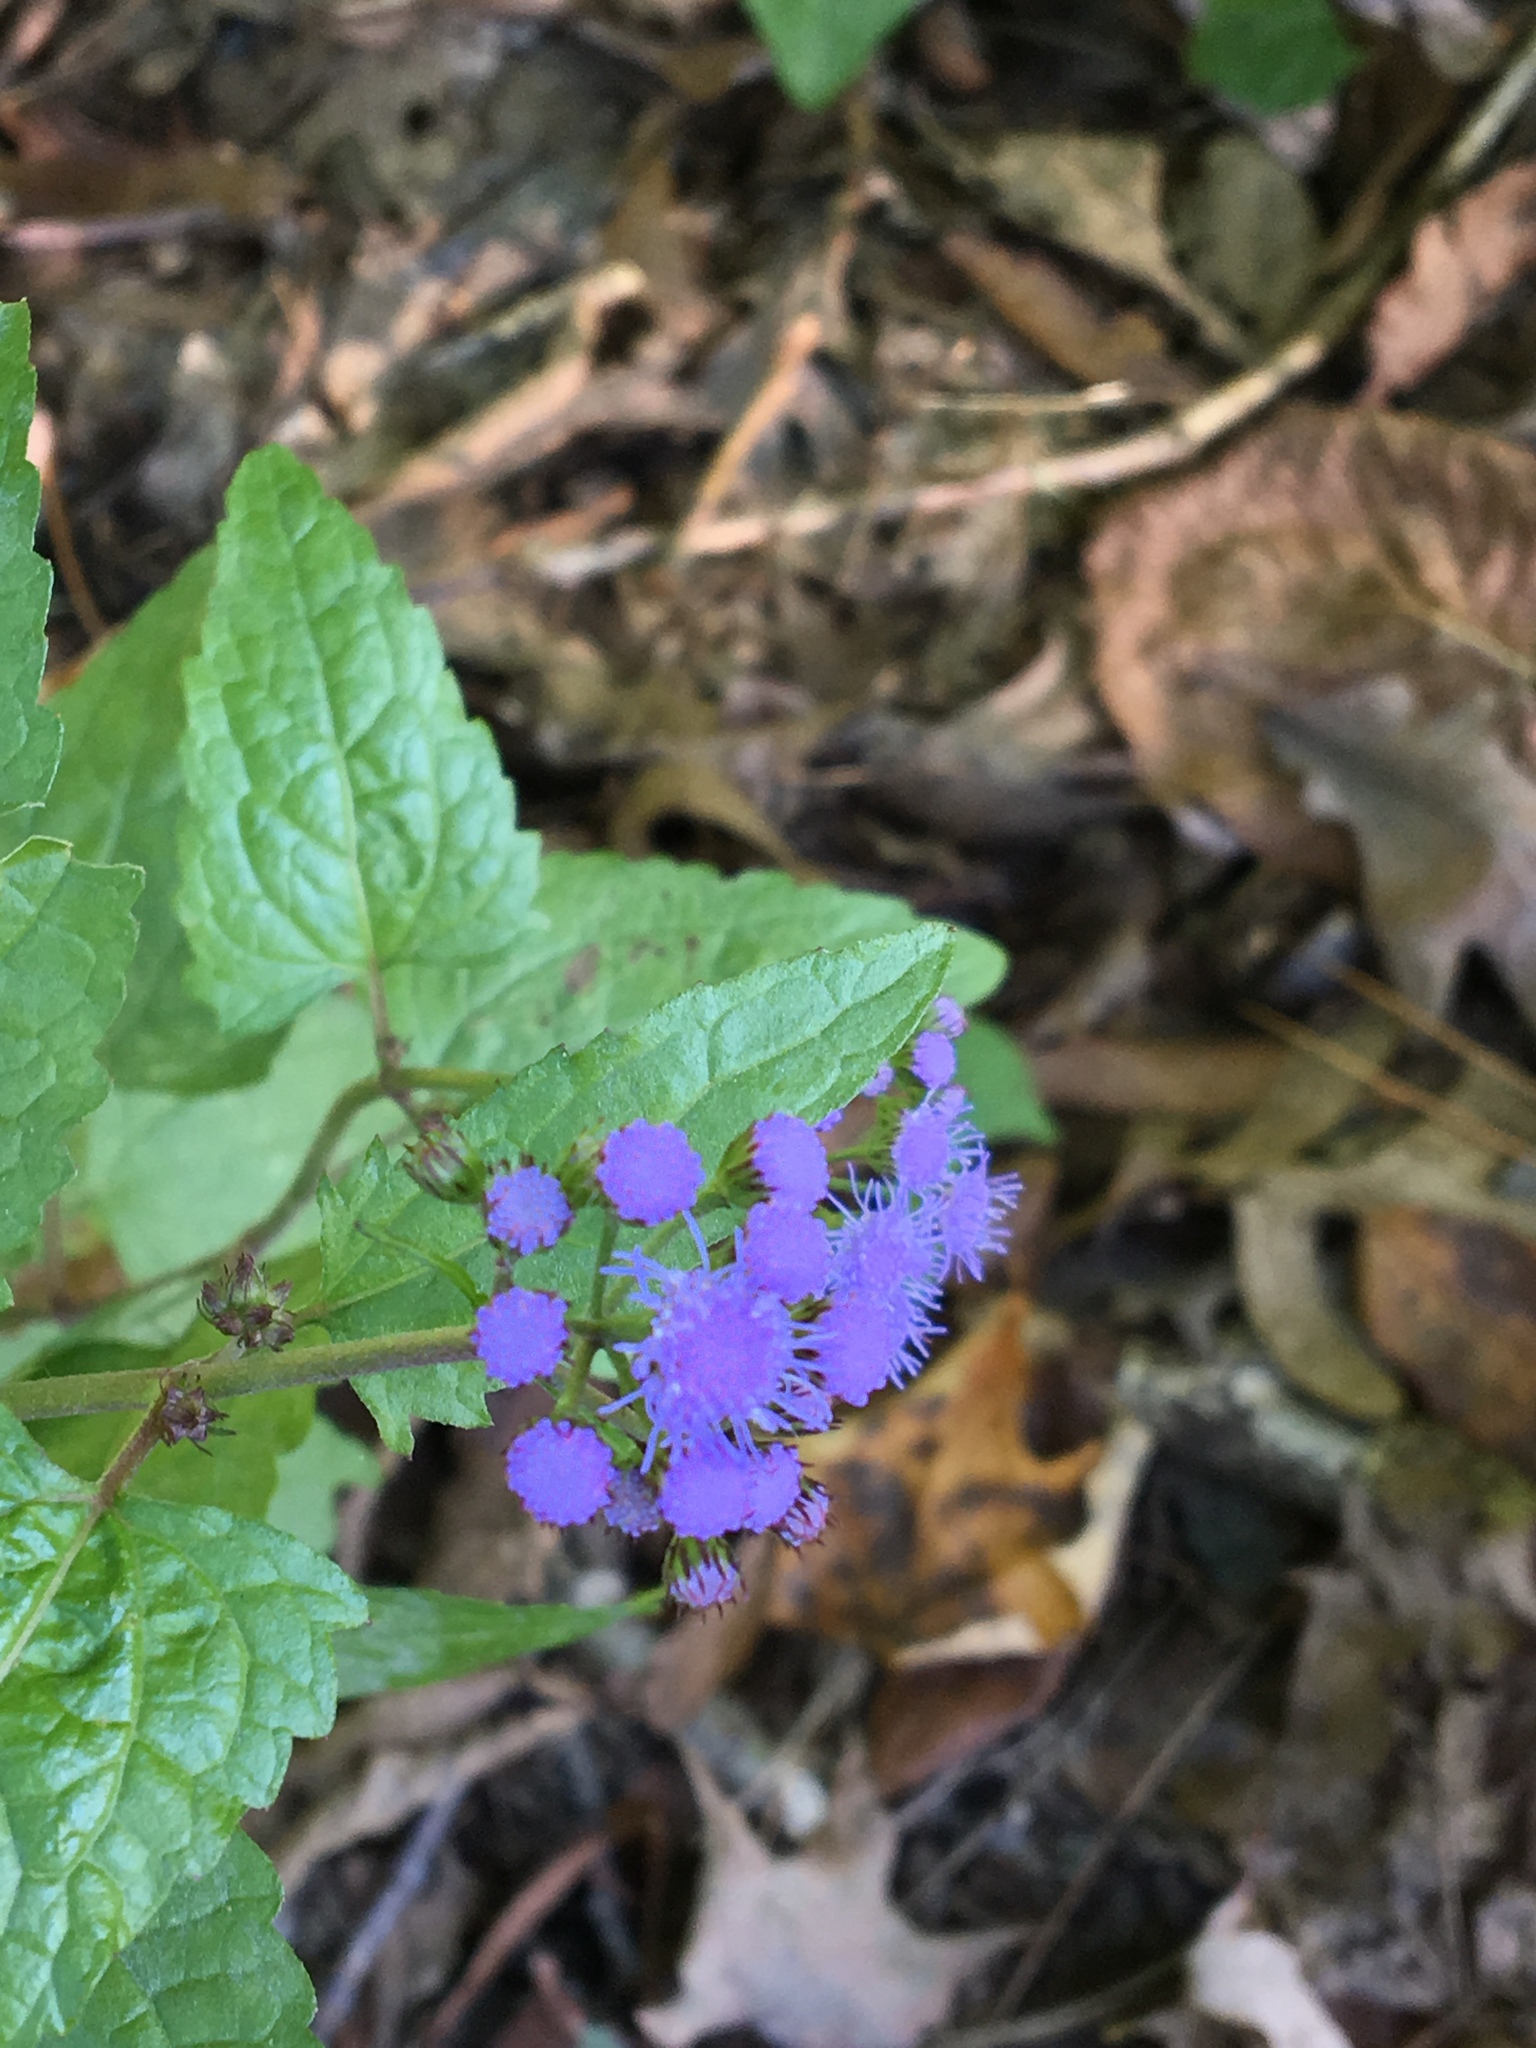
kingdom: Plantae
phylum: Tracheophyta
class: Magnoliopsida
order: Asterales
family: Asteraceae
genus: Conoclinium
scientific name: Conoclinium coelestinum
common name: Blue mistflower
